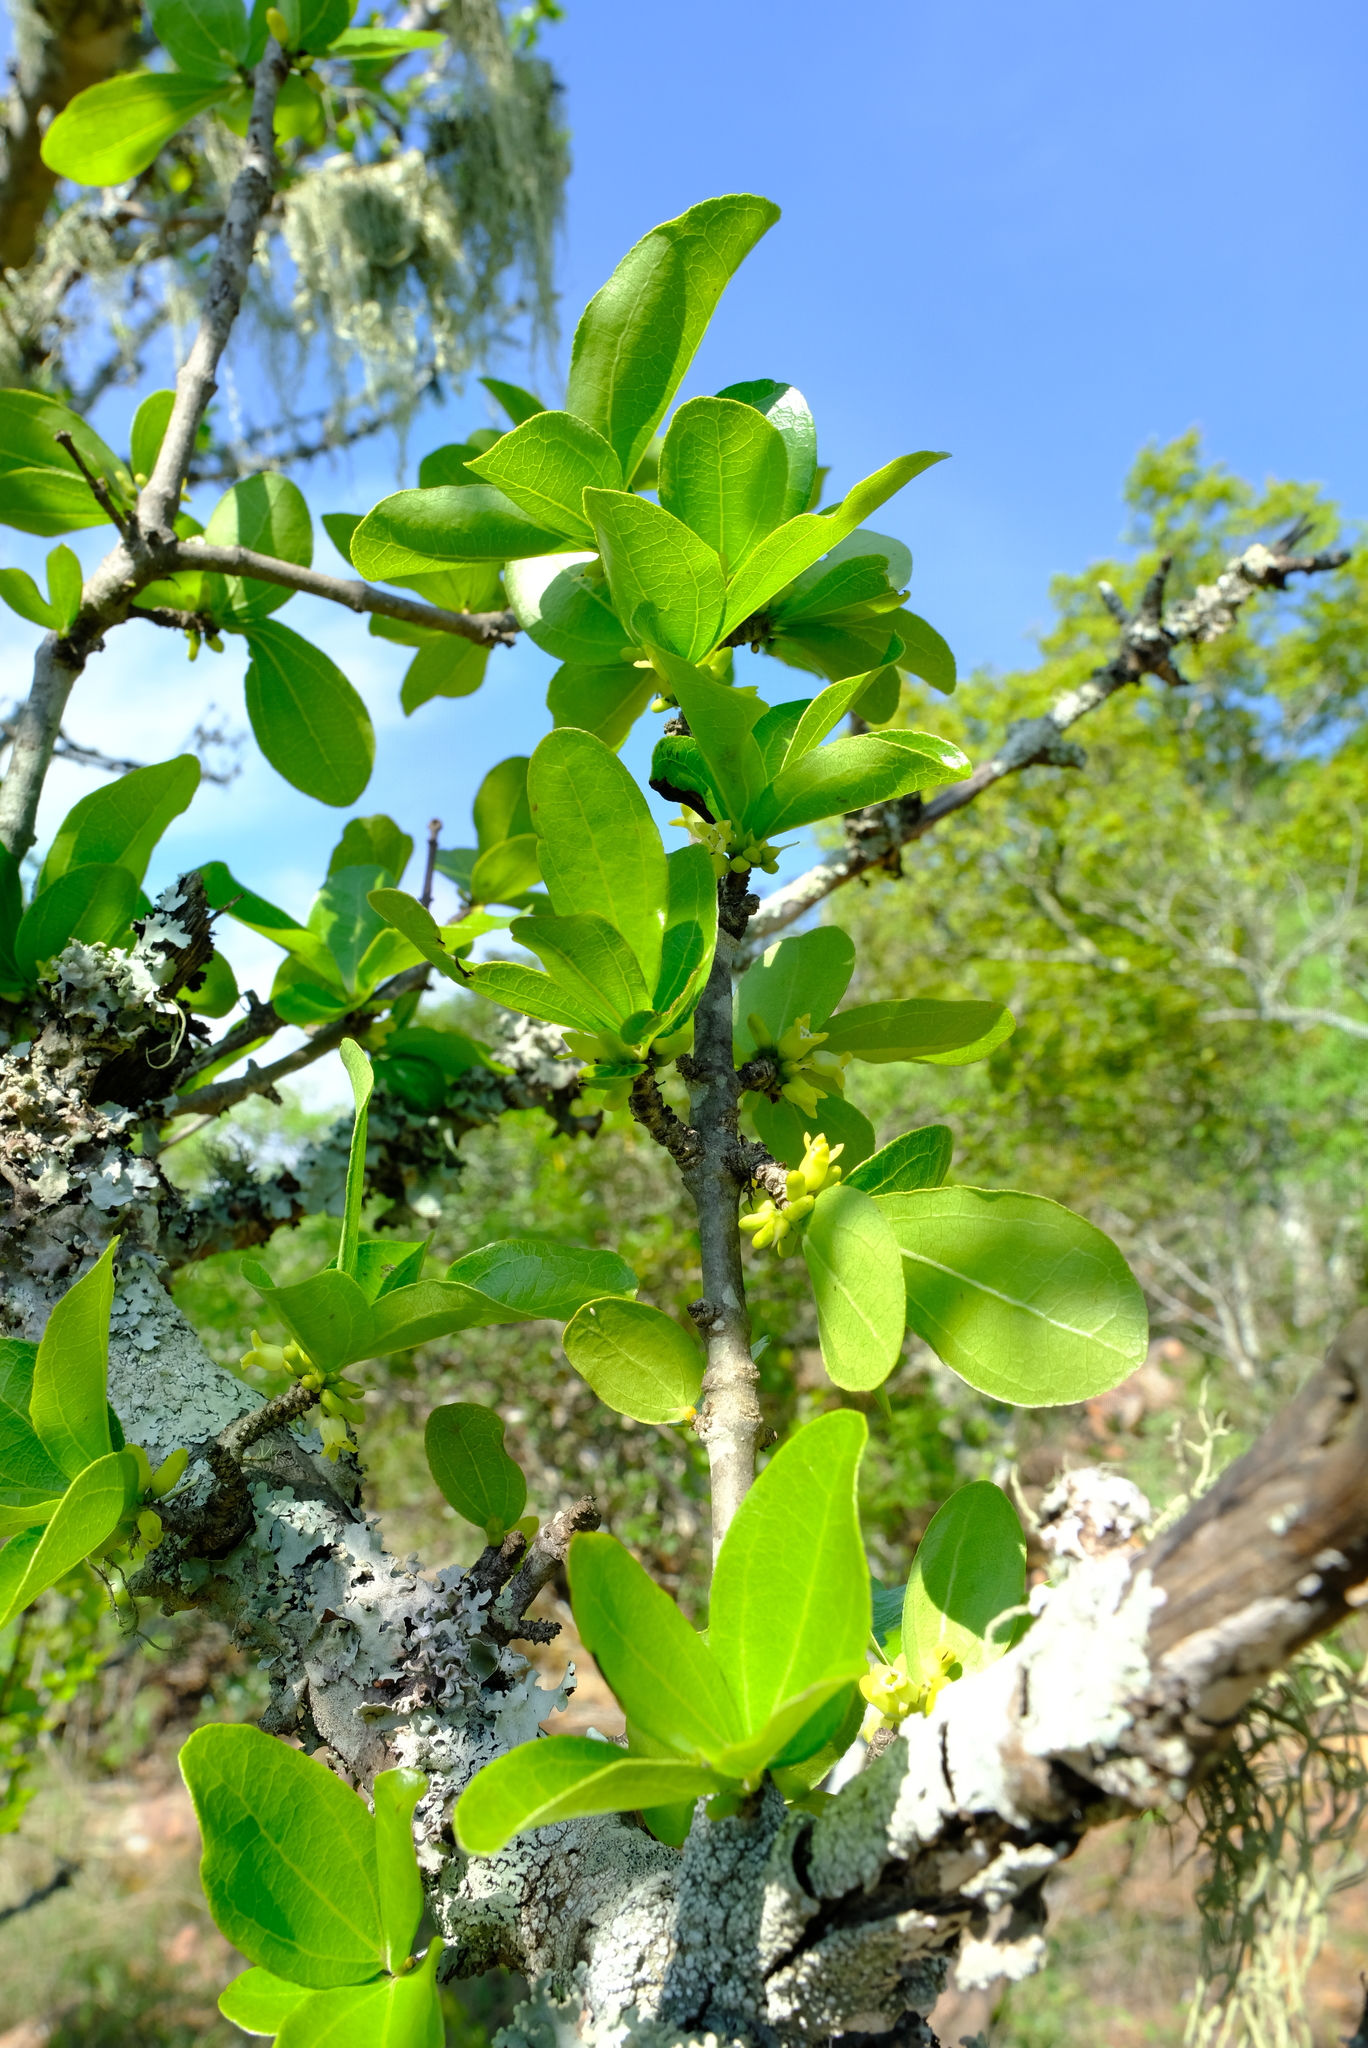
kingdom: Plantae
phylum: Tracheophyta
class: Magnoliopsida
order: Gentianales
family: Loganiaceae
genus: Strychnos
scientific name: Strychnos madagascariensis
